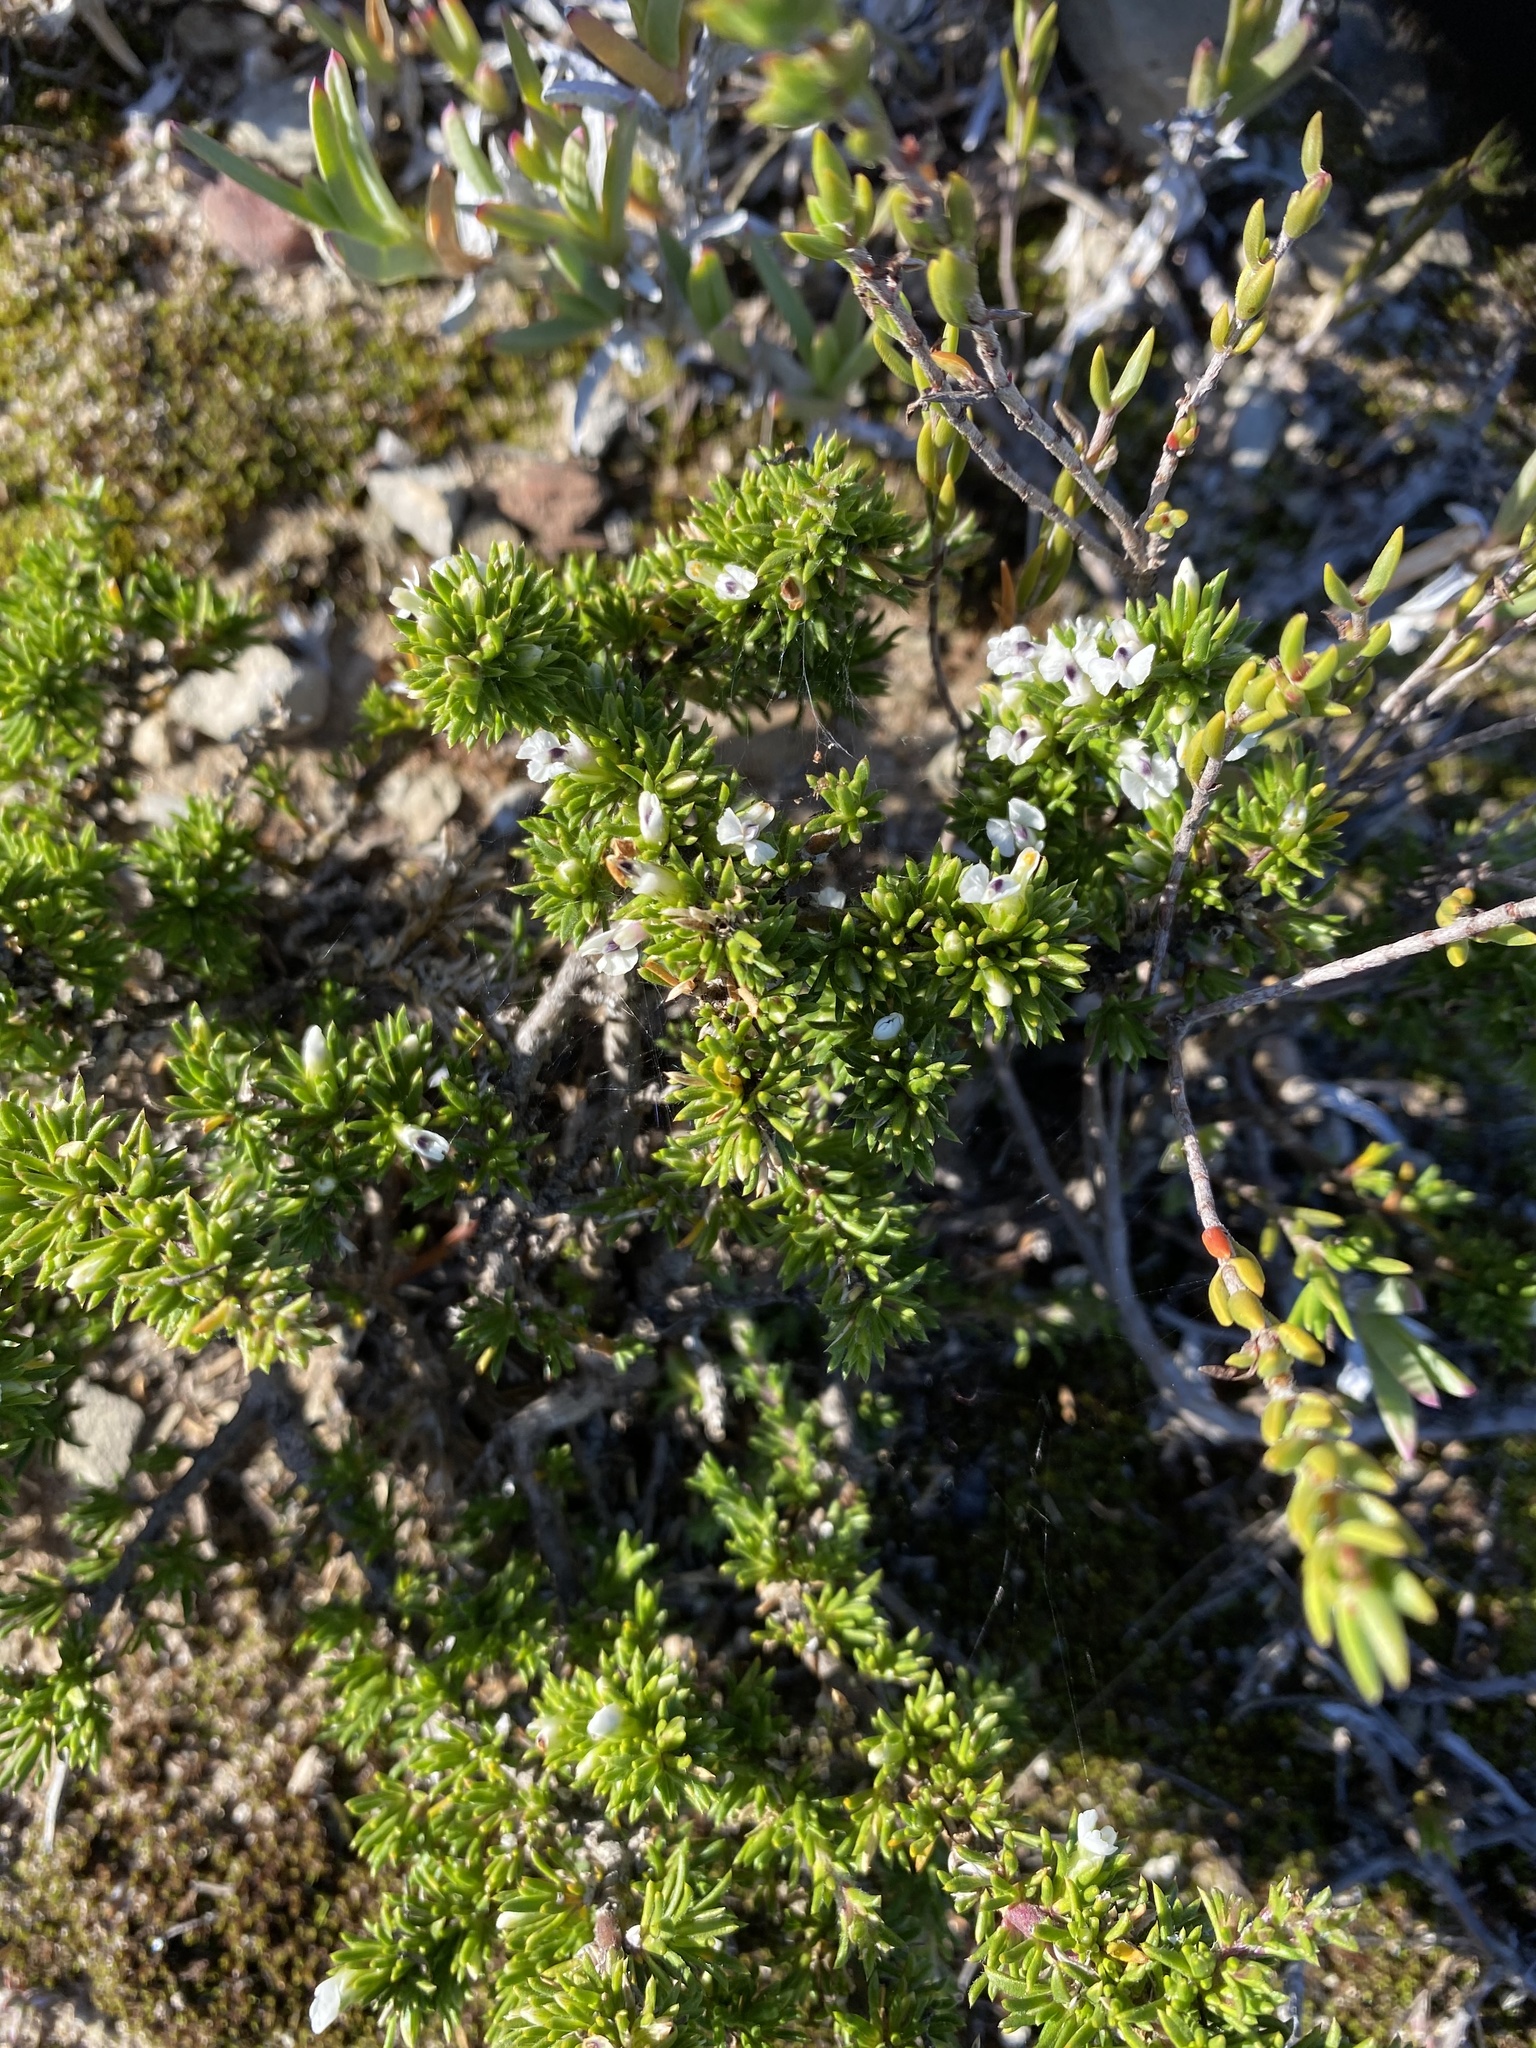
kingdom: Plantae
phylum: Tracheophyta
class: Magnoliopsida
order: Fabales
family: Polygalaceae
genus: Muraltia
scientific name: Muraltia pappeana
